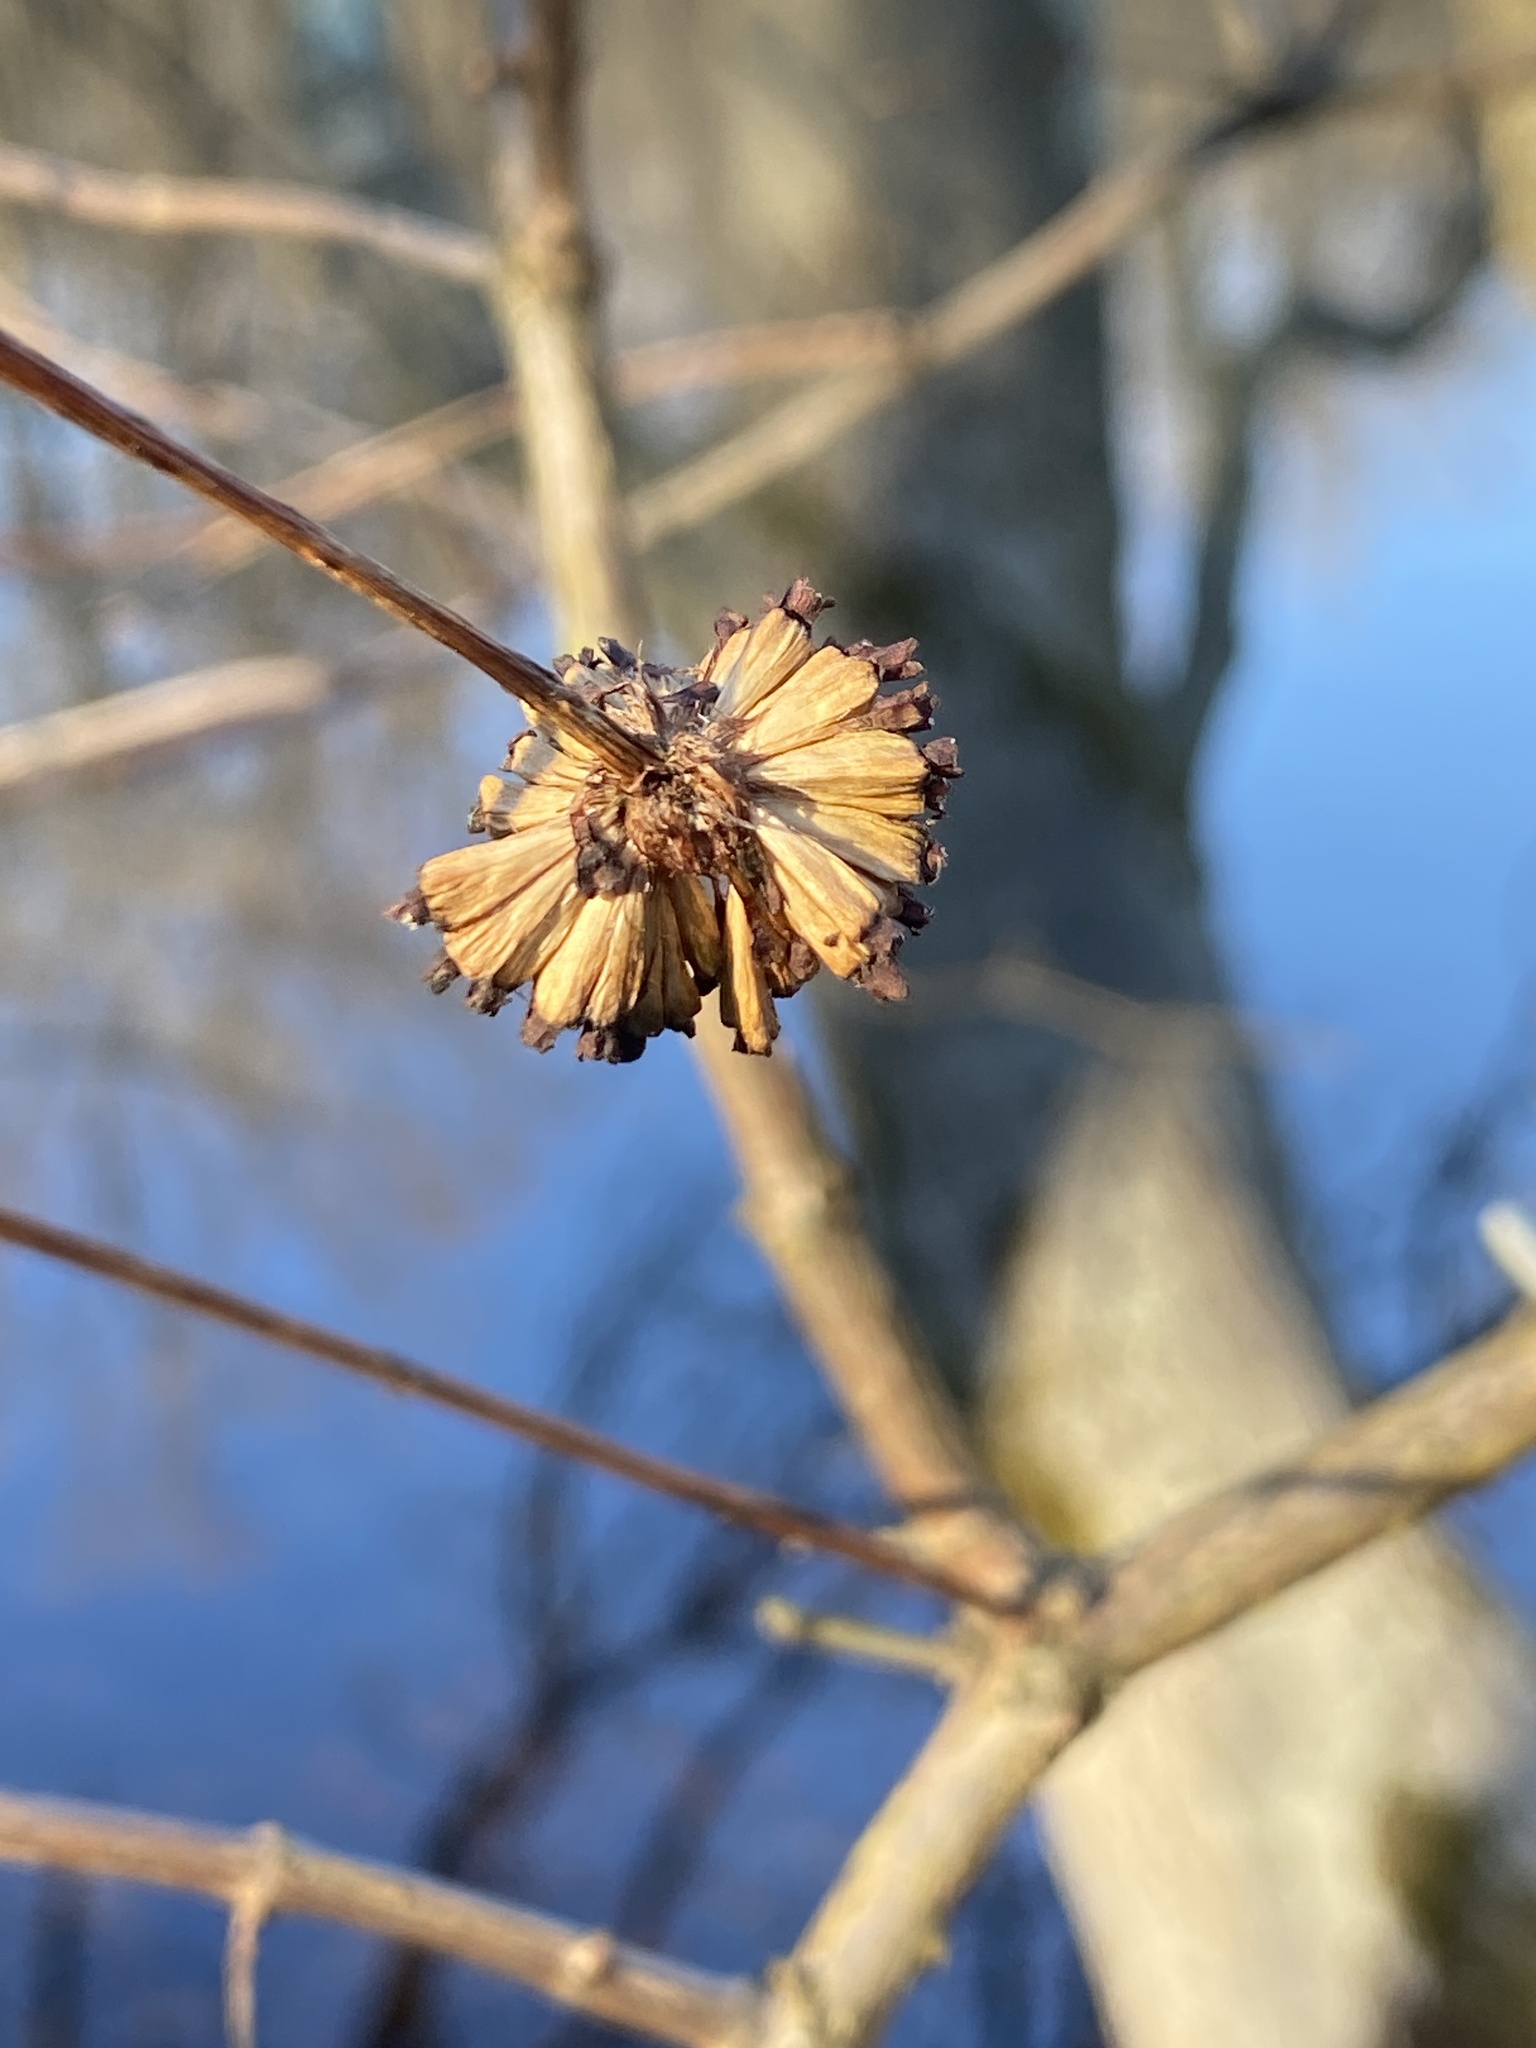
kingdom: Plantae
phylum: Tracheophyta
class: Magnoliopsida
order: Gentianales
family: Rubiaceae
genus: Cephalanthus
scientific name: Cephalanthus occidentalis
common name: Button-willow
